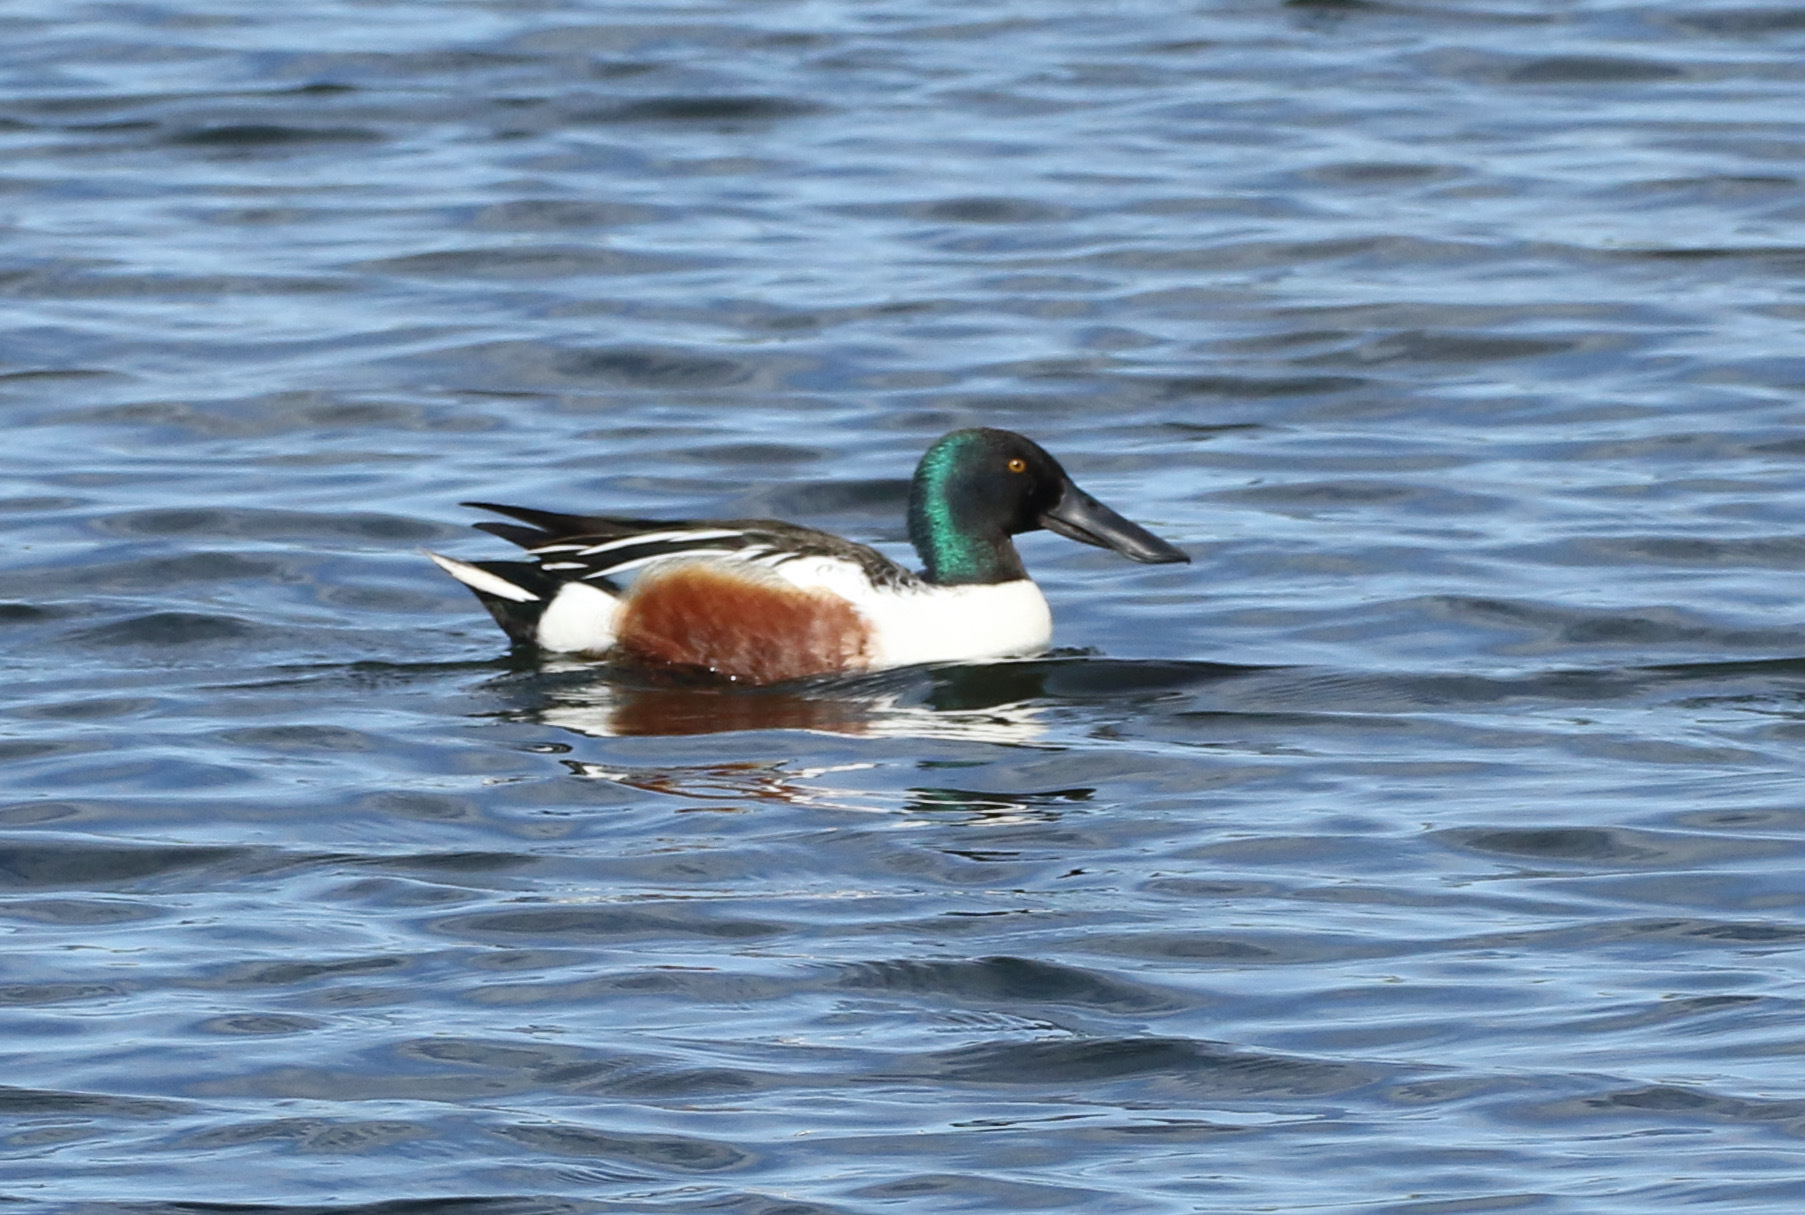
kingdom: Animalia
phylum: Chordata
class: Aves
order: Anseriformes
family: Anatidae
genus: Spatula
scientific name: Spatula clypeata
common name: Northern shoveler
